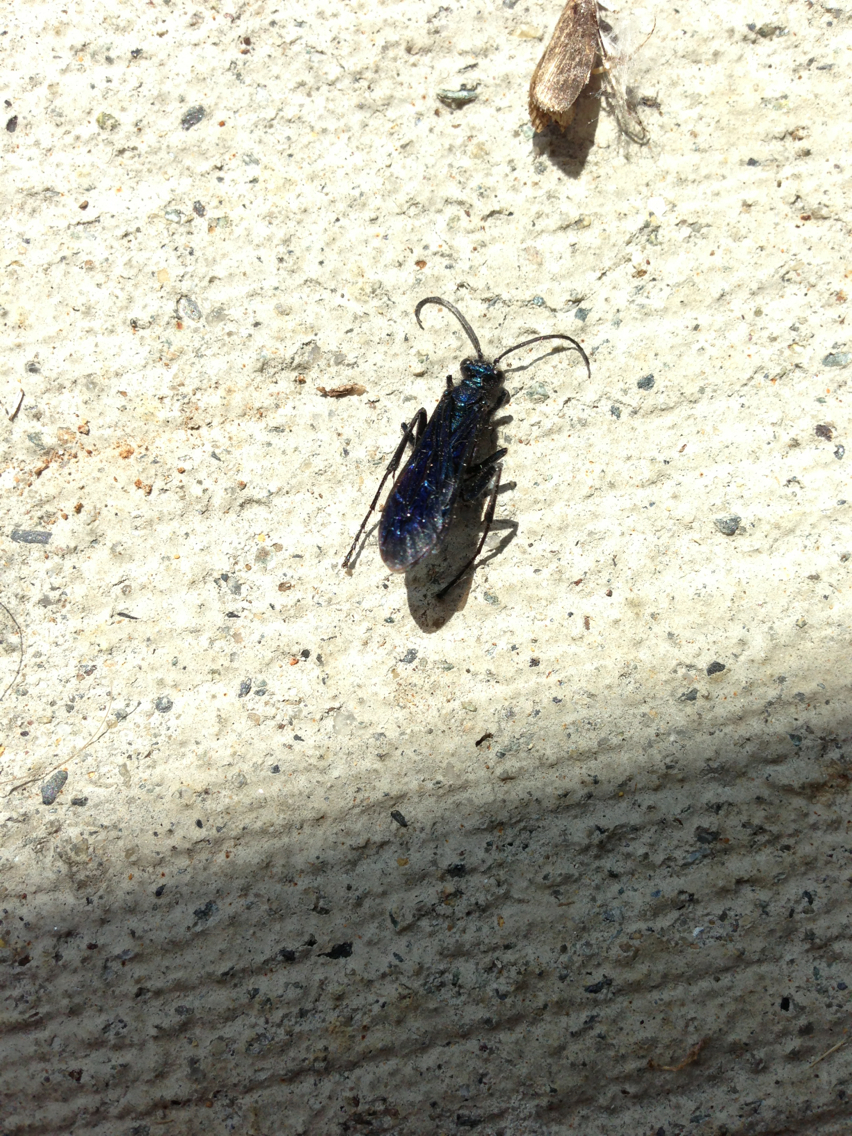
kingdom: Animalia
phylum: Arthropoda
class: Insecta
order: Hymenoptera
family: Sphecidae
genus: Chalybion
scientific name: Chalybion californicum
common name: Mud dauber
